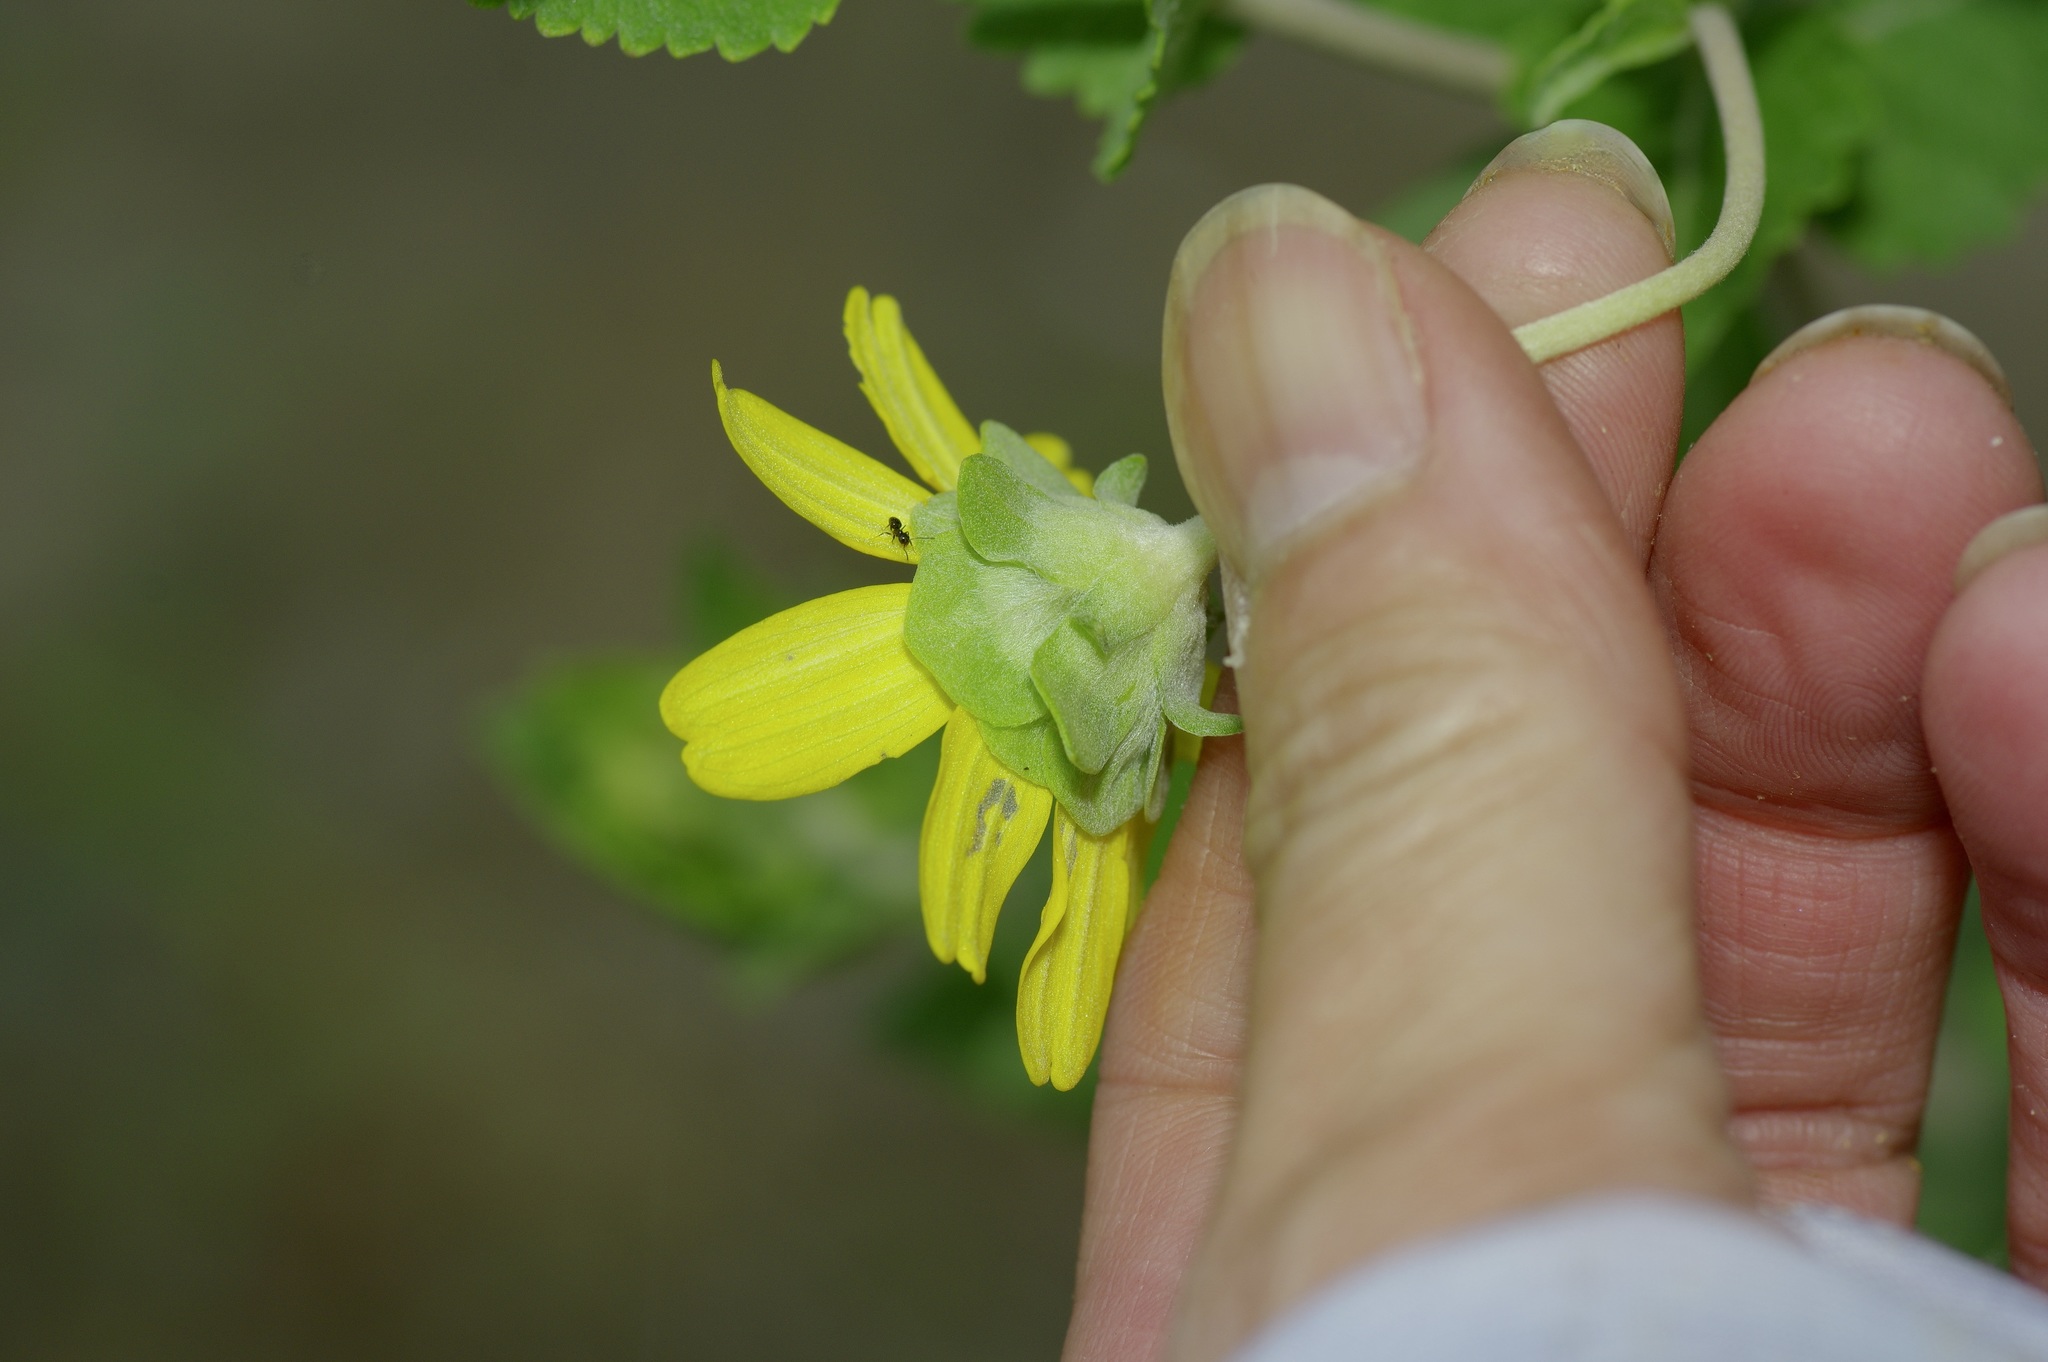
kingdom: Plantae
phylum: Tracheophyta
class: Magnoliopsida
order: Asterales
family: Asteraceae
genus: Berlandiera
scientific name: Berlandiera pumila
